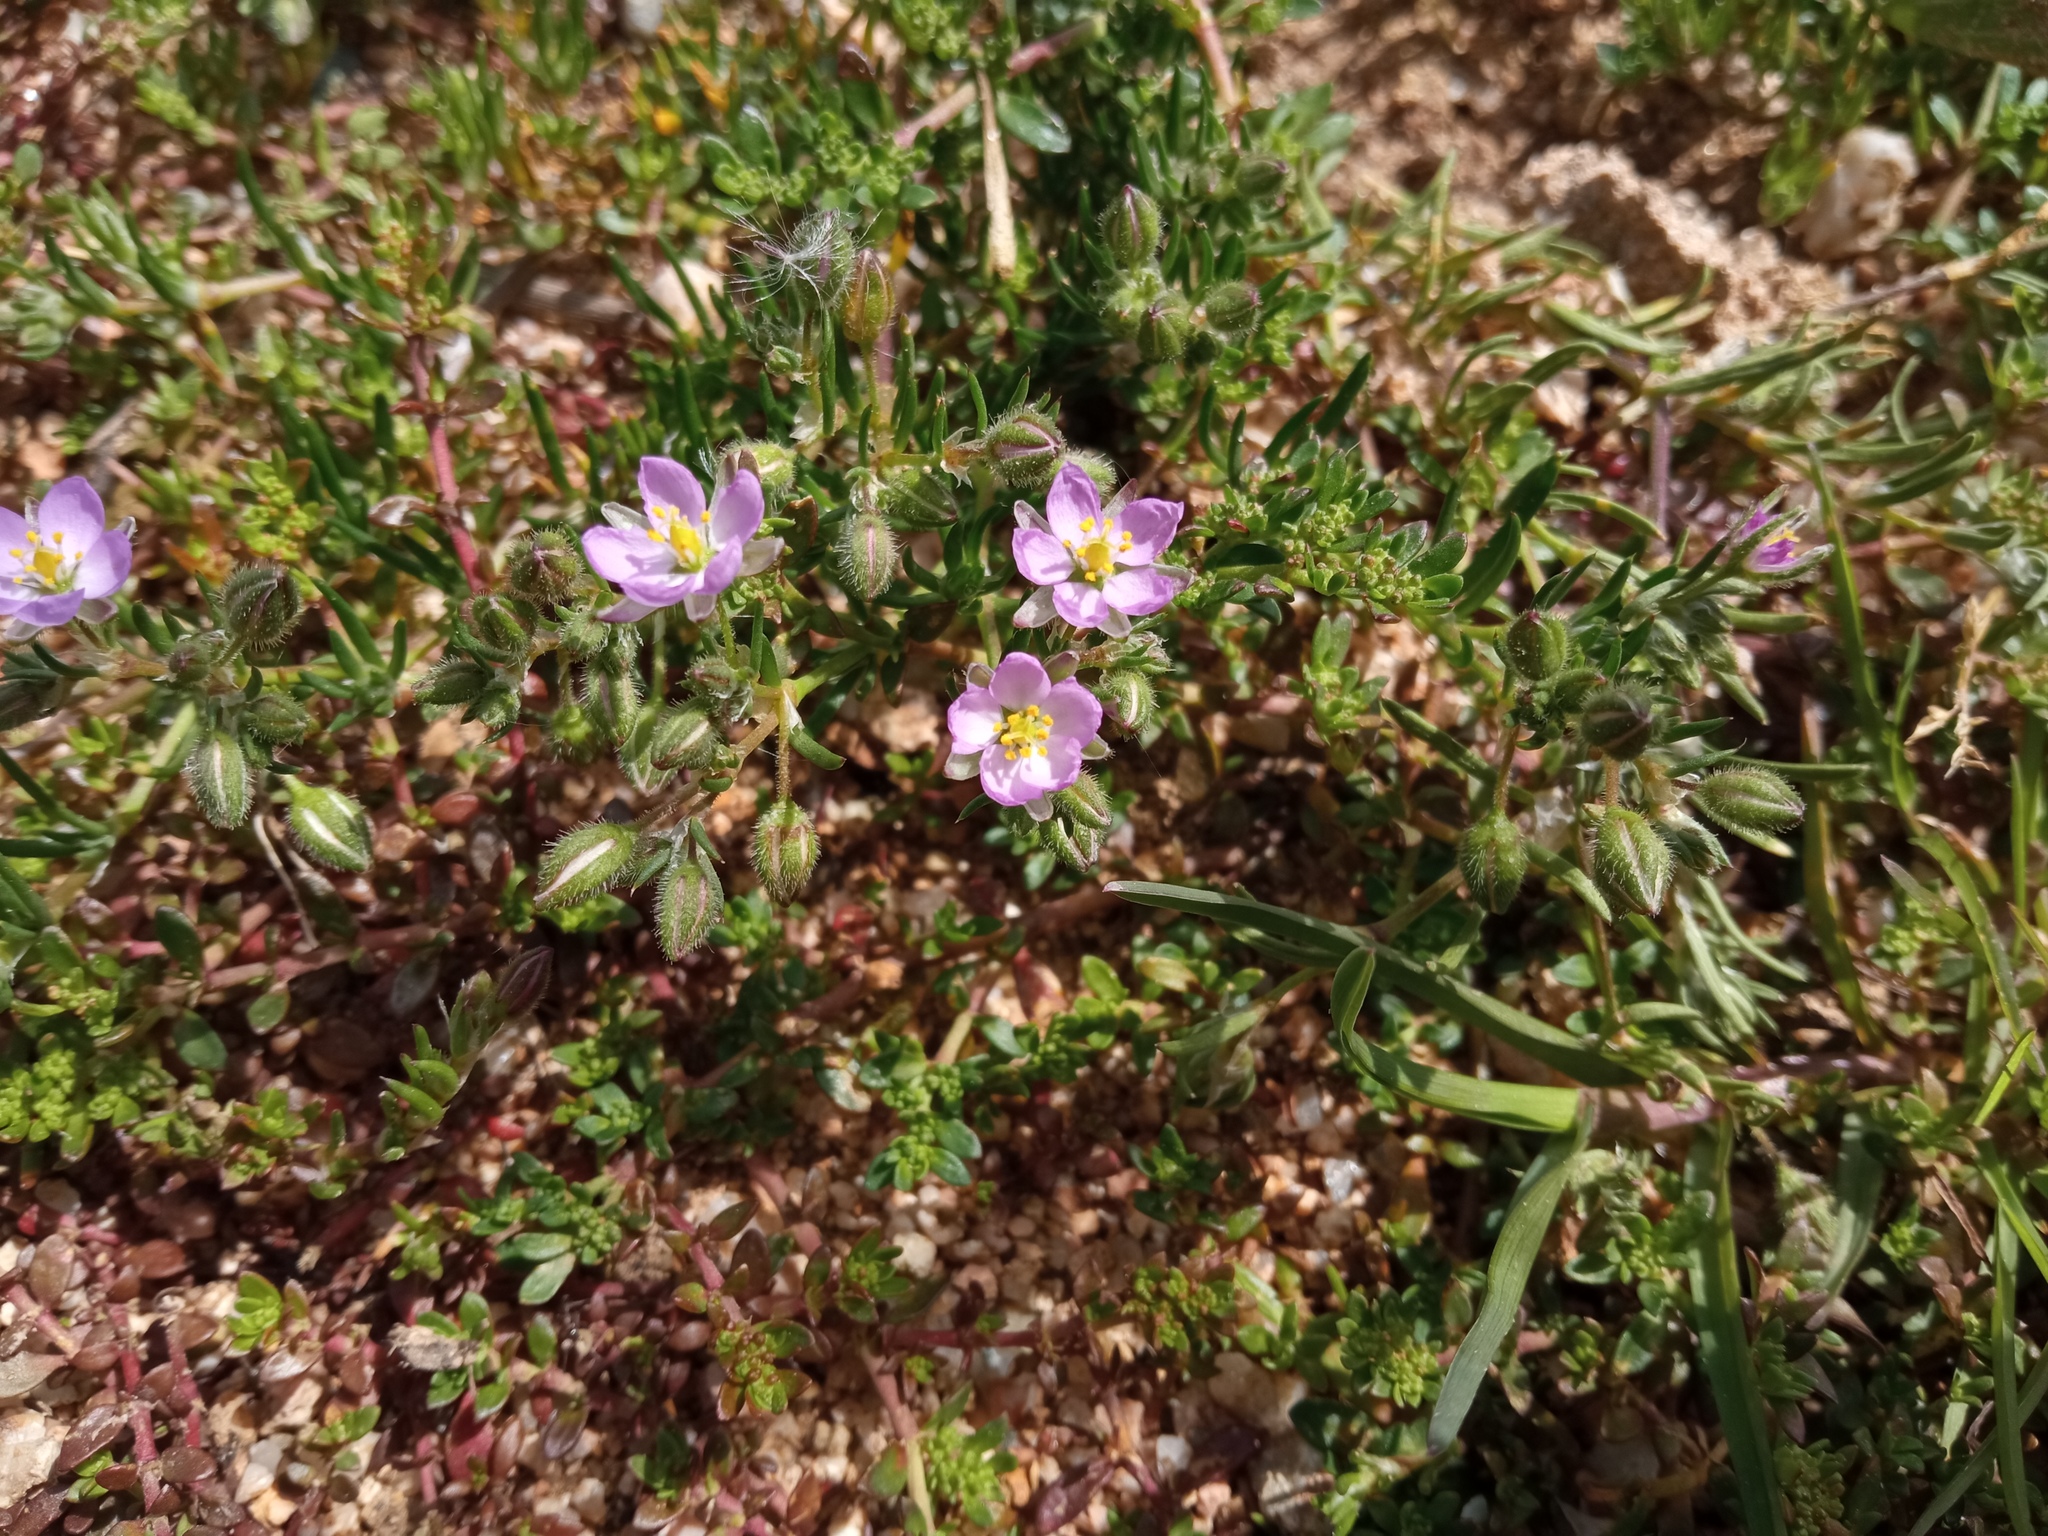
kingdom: Plantae
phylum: Tracheophyta
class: Magnoliopsida
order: Caryophyllales
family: Caryophyllaceae
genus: Spergularia
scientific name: Spergularia rubra
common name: Red sand-spurrey
